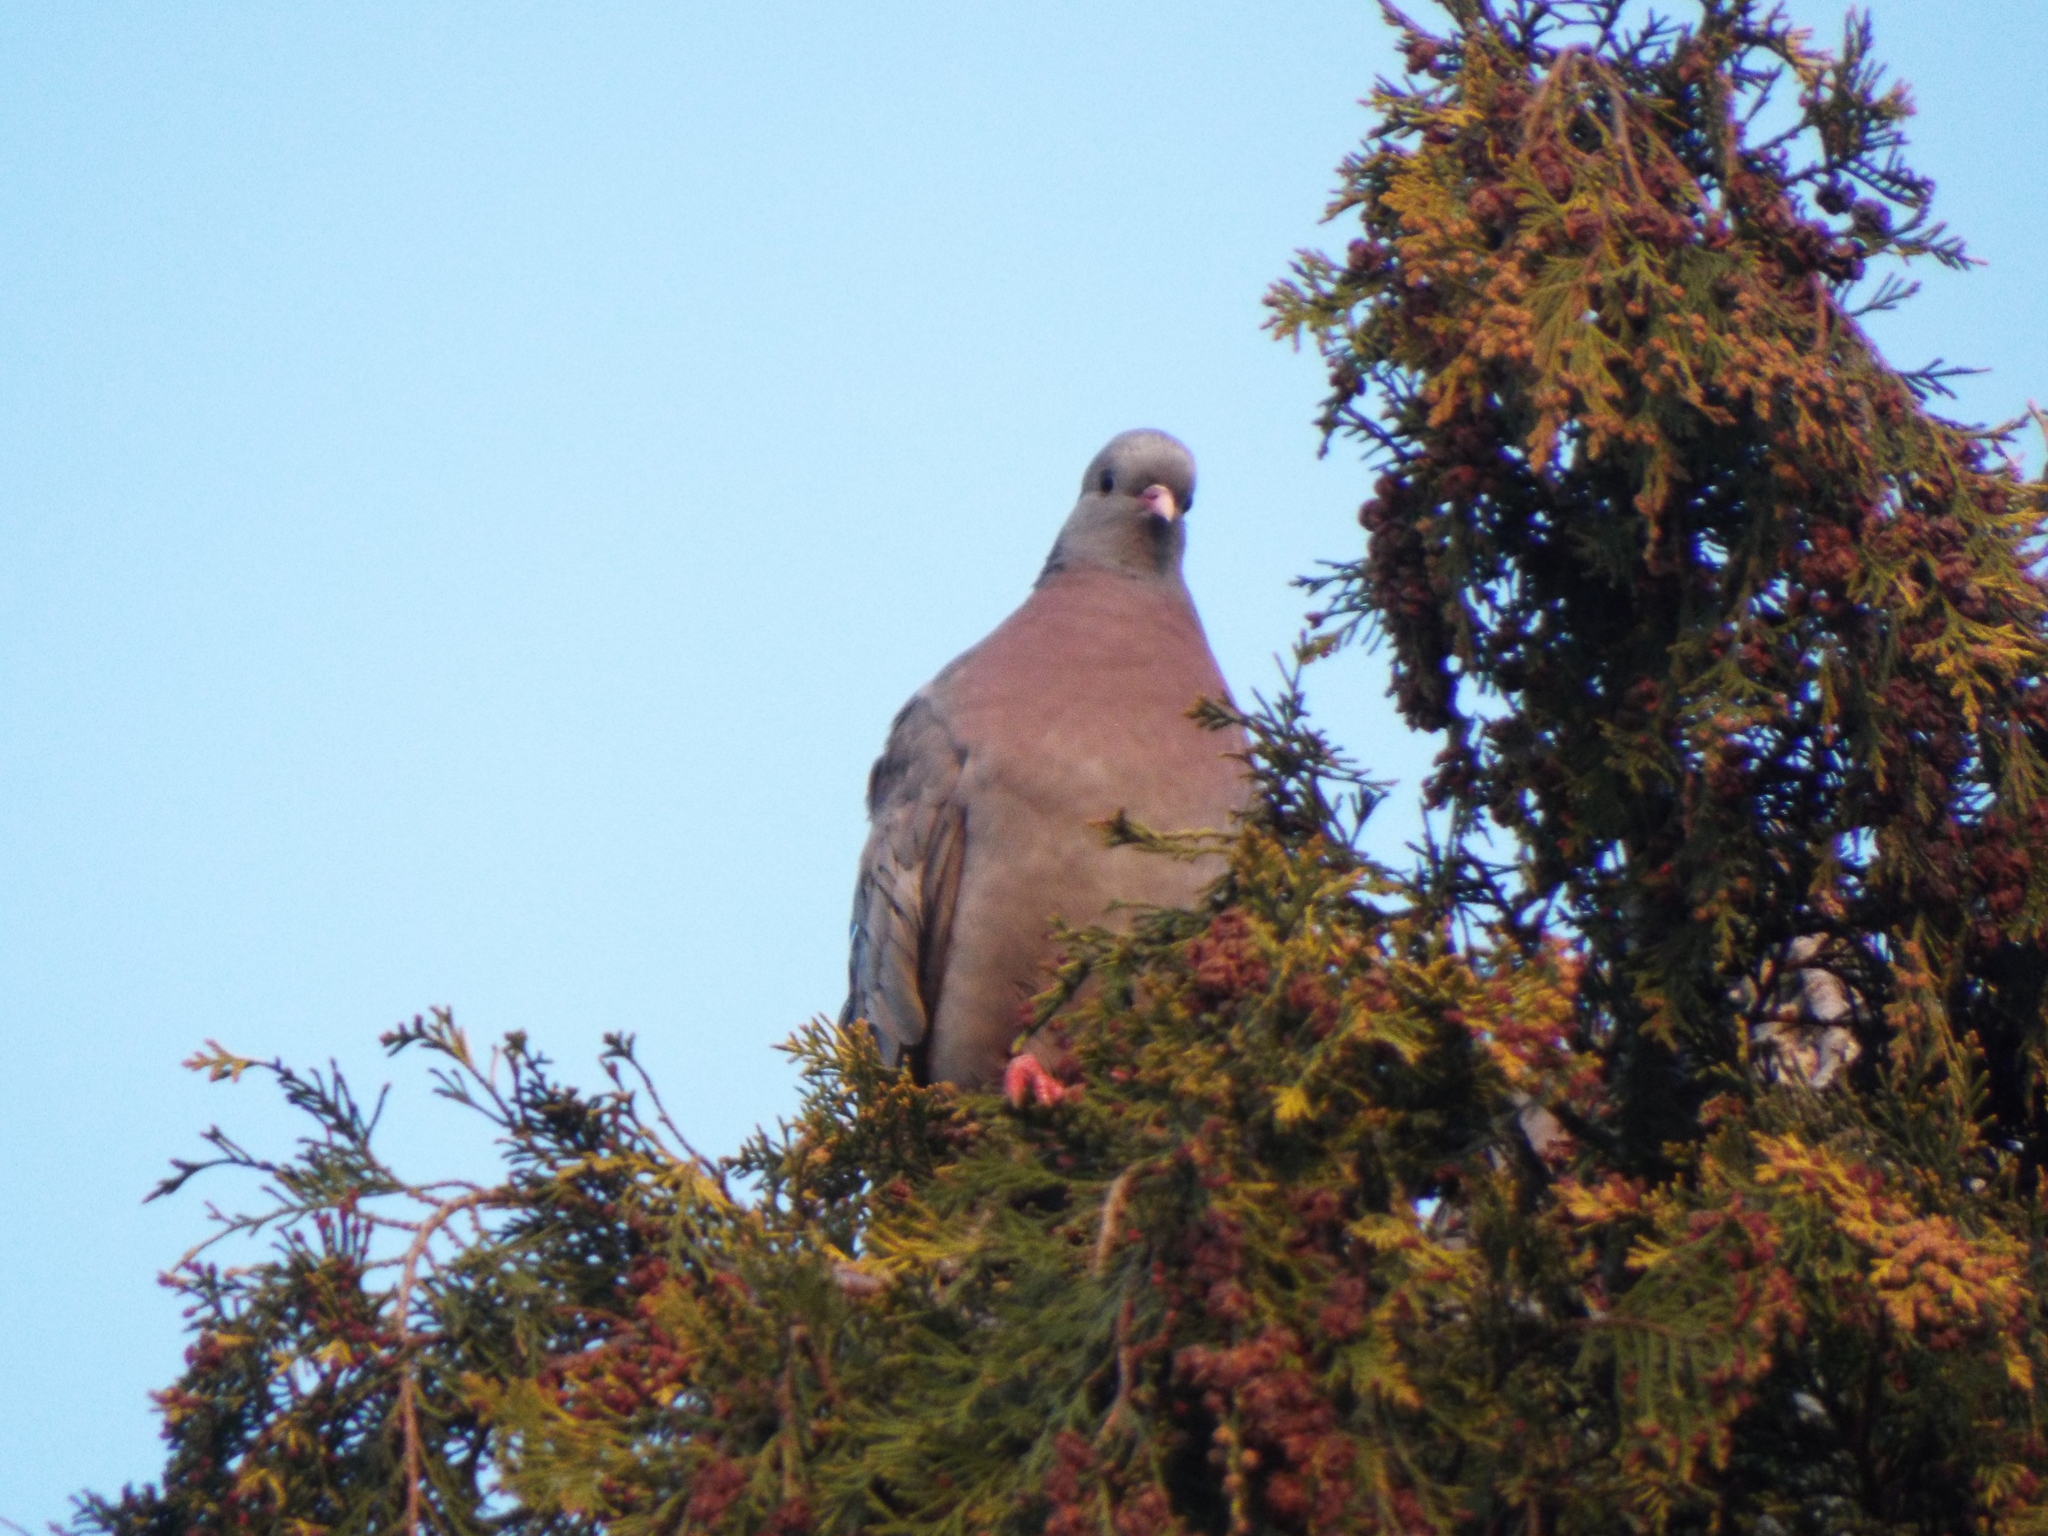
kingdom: Animalia
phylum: Chordata
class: Aves
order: Columbiformes
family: Columbidae
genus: Columba
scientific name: Columba oenas
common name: Stock dove
